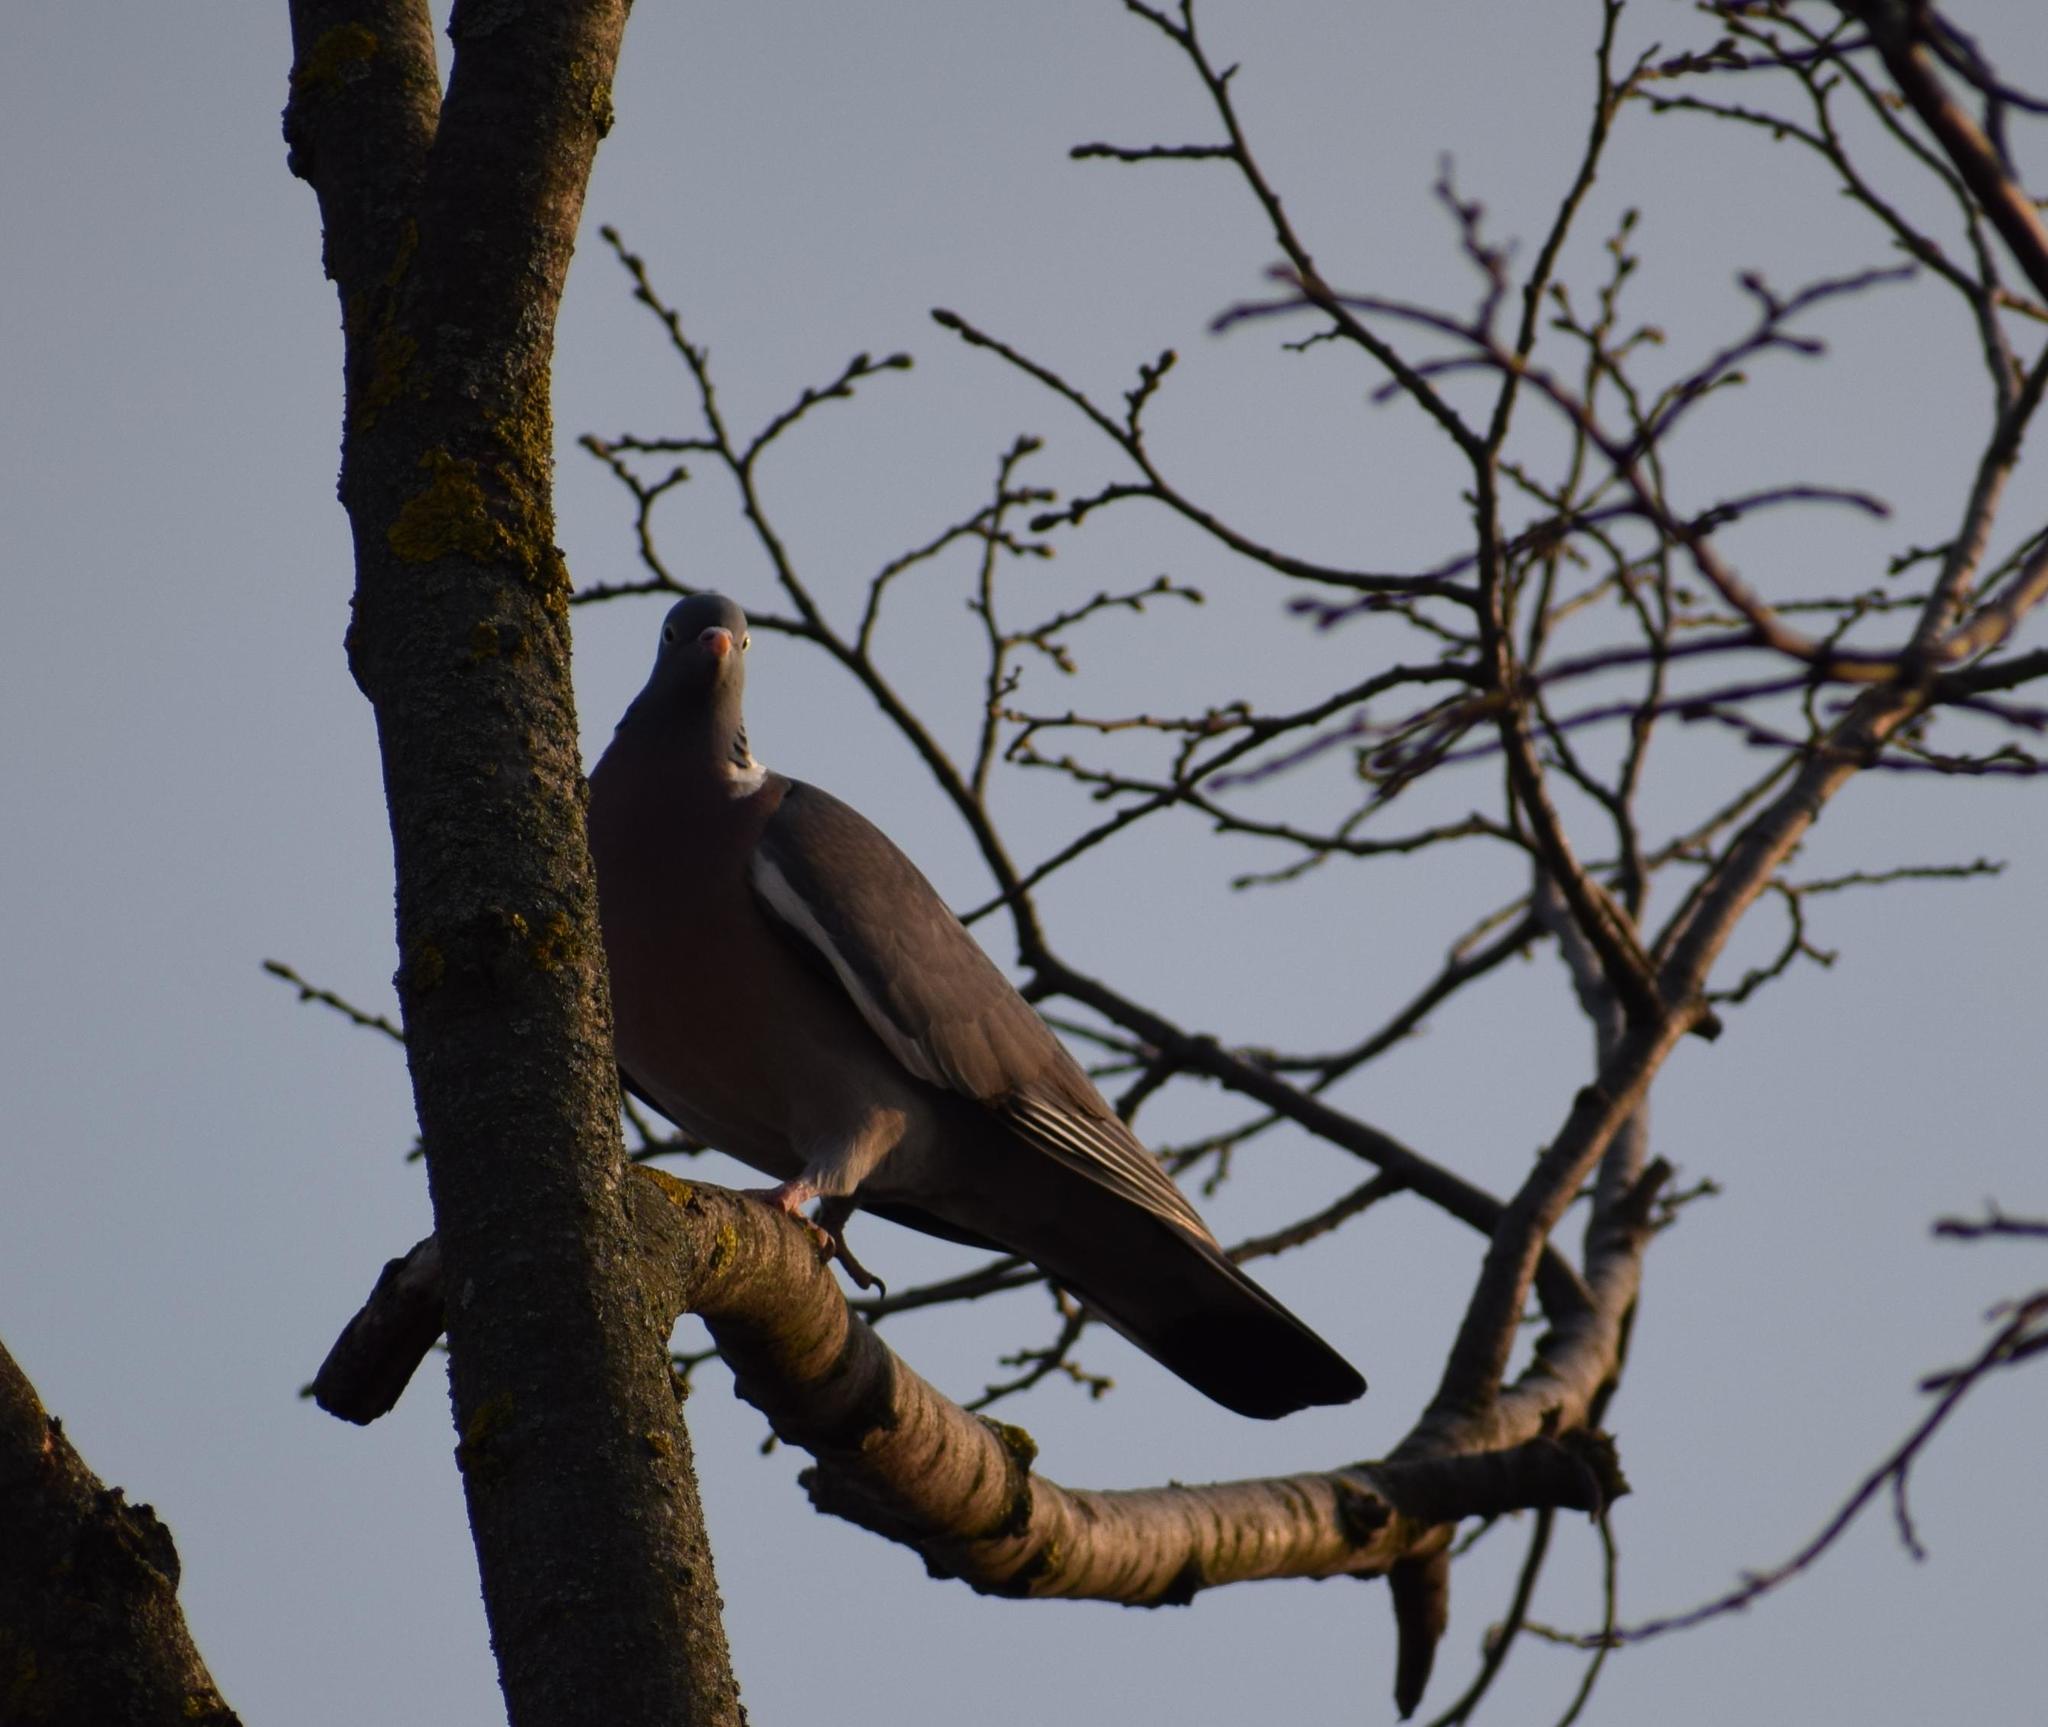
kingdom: Animalia
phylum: Chordata
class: Aves
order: Columbiformes
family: Columbidae
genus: Columba
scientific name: Columba palumbus
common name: Common wood pigeon
